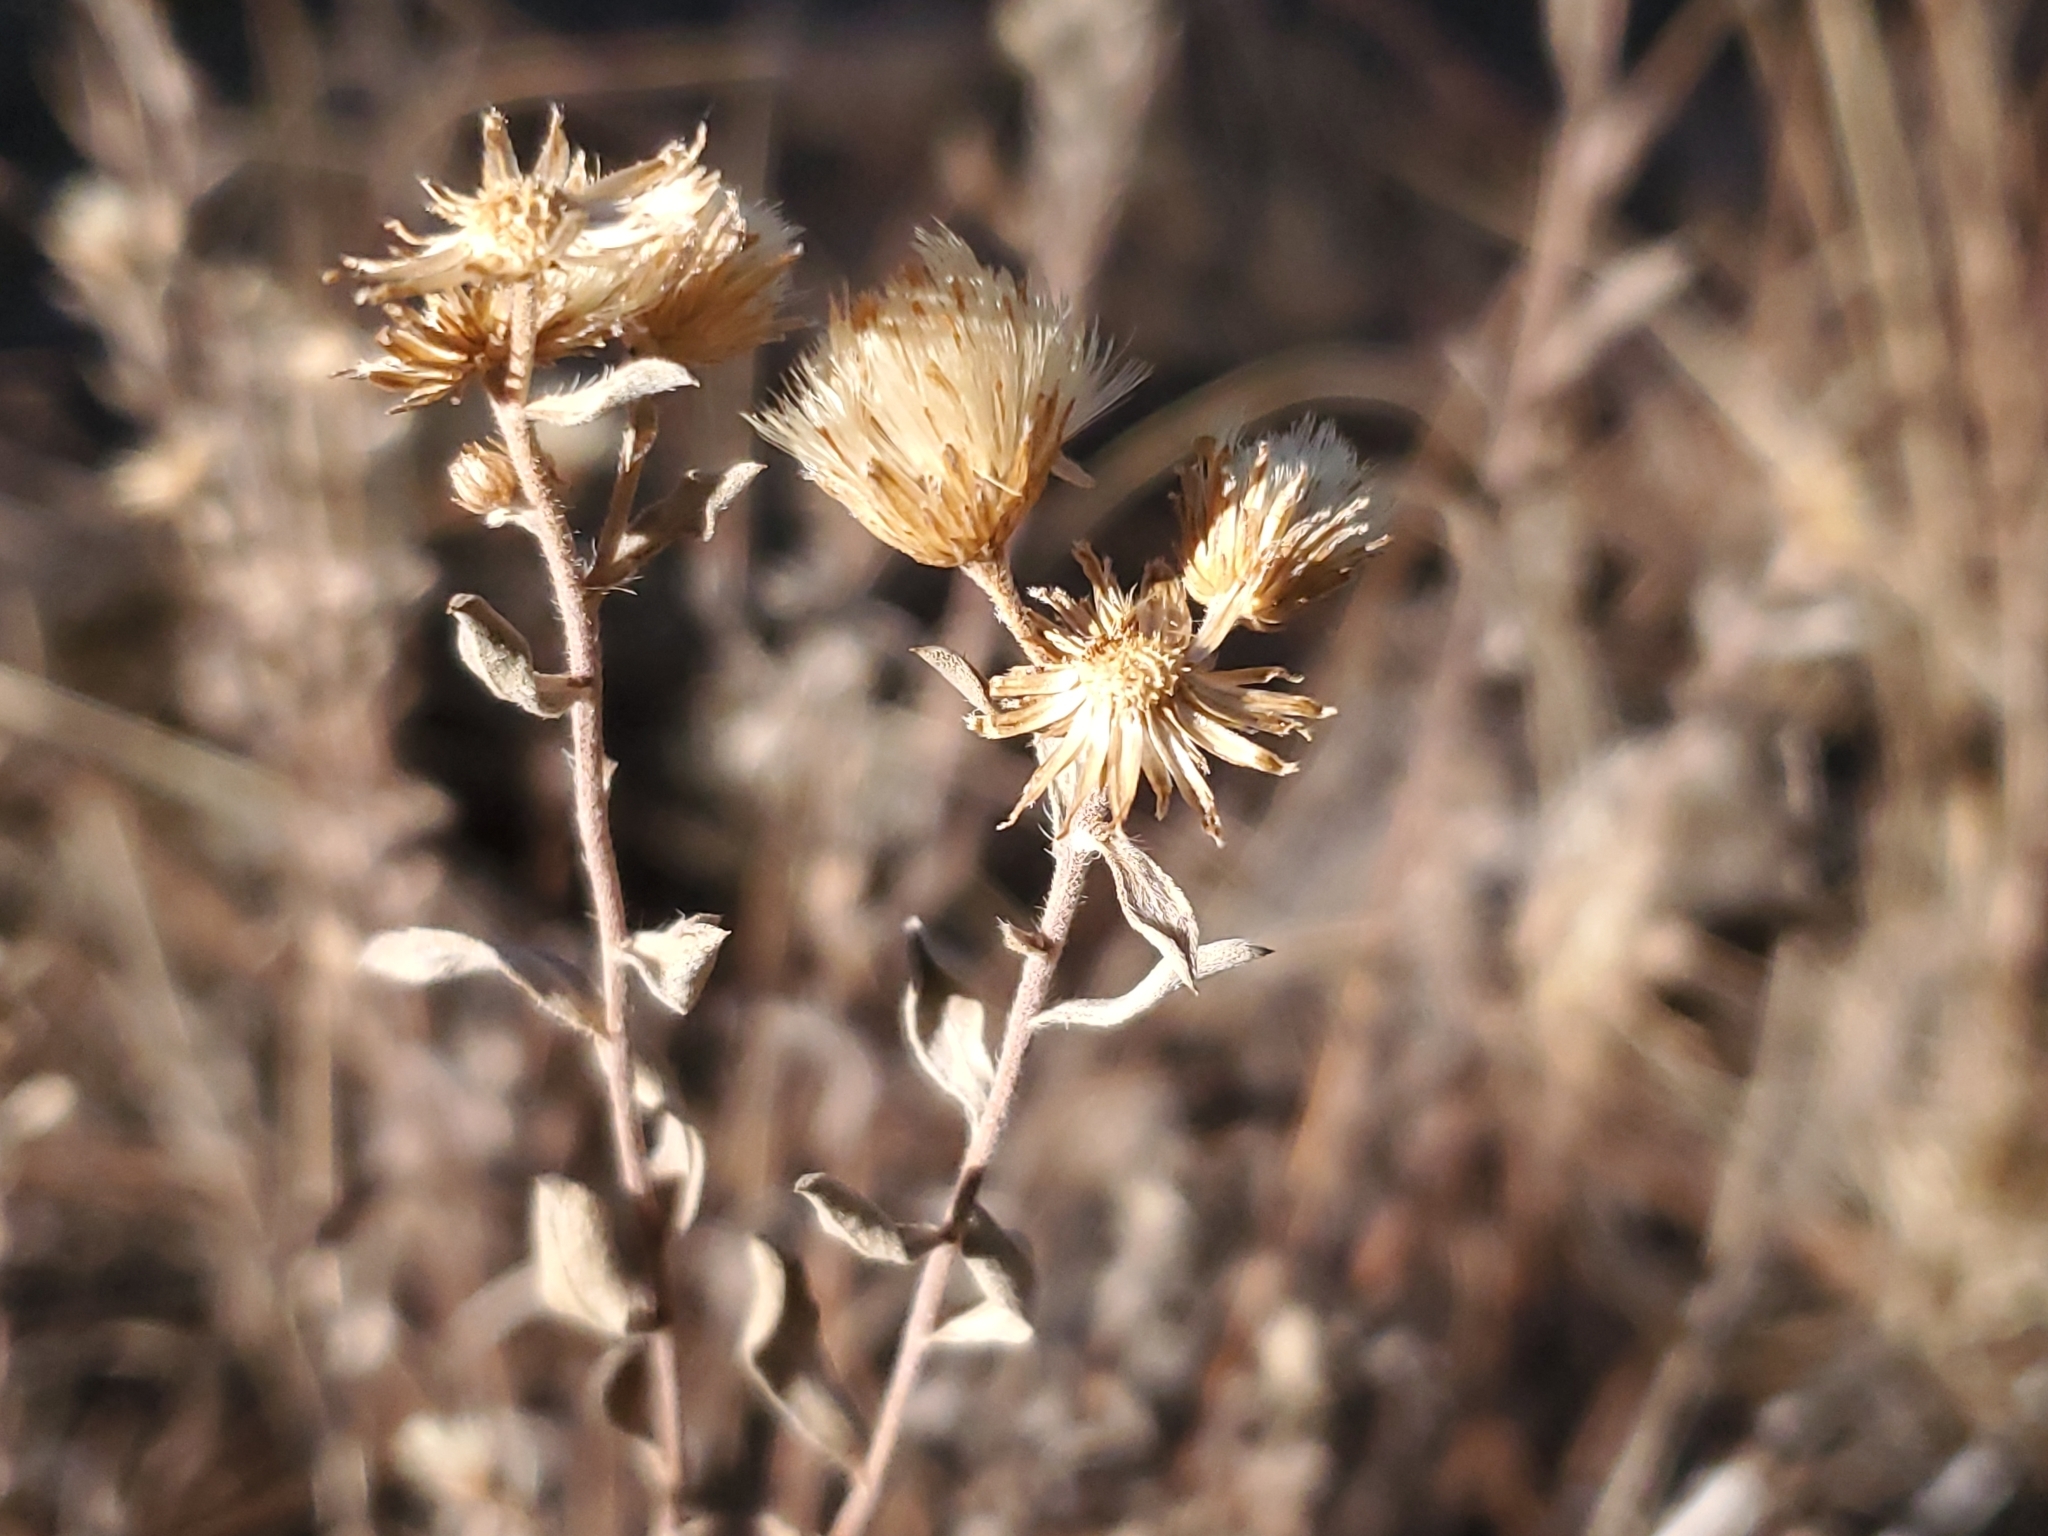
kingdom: Plantae
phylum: Tracheophyta
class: Magnoliopsida
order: Asterales
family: Asteraceae
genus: Heterotheca
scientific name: Heterotheca zionensis
